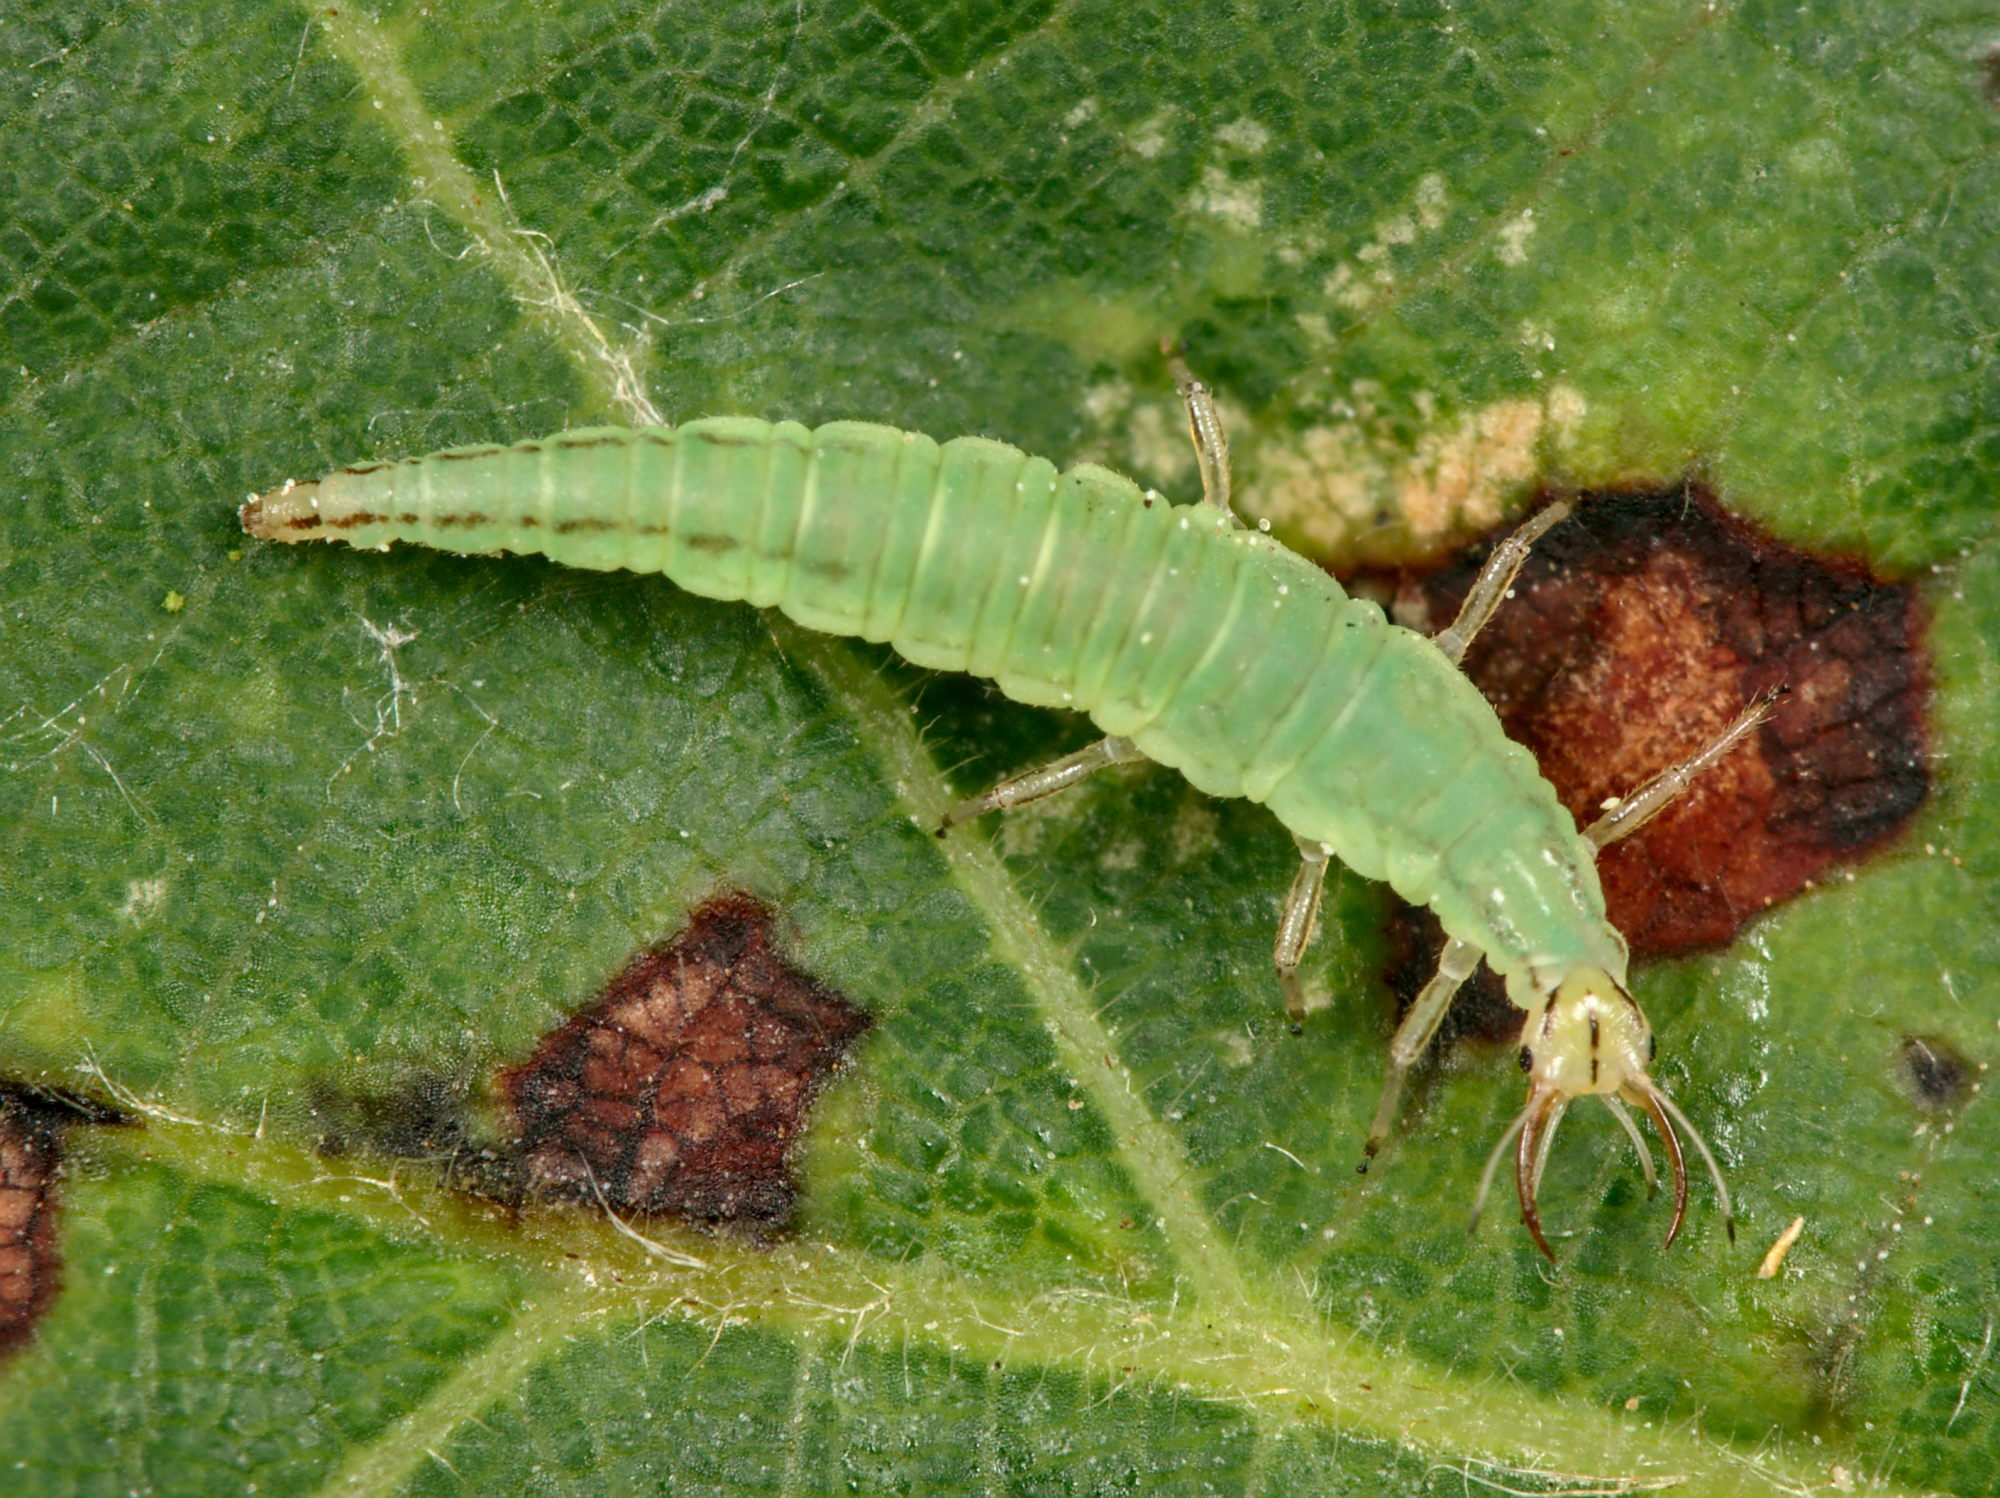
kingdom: Animalia
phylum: Arthropoda
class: Insecta
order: Neuroptera
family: Chrysopidae
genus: Hypochrysa
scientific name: Hypochrysa elegans
